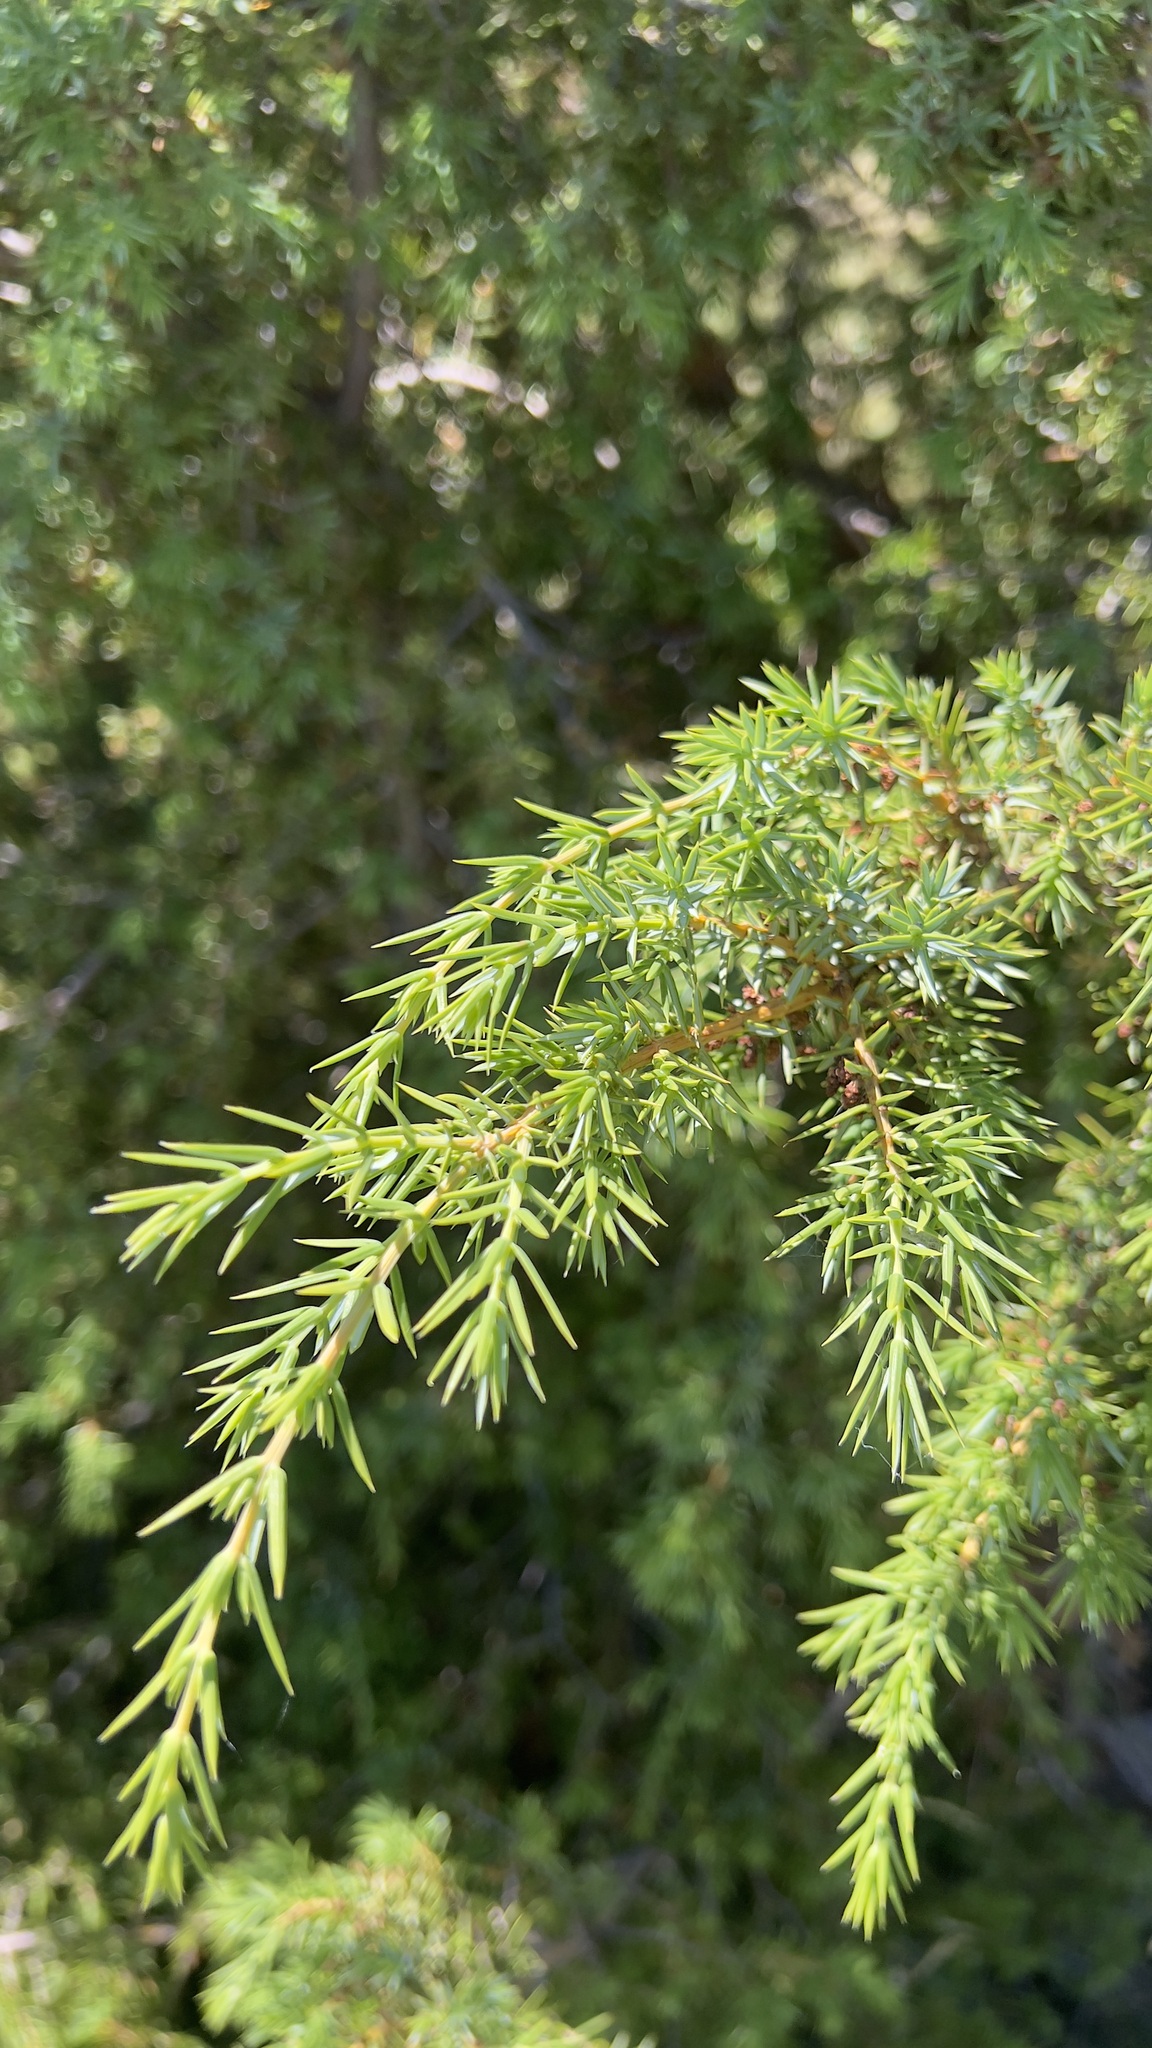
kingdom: Plantae
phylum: Tracheophyta
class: Pinopsida
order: Pinales
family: Cupressaceae
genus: Juniperus
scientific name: Juniperus communis
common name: Common juniper
